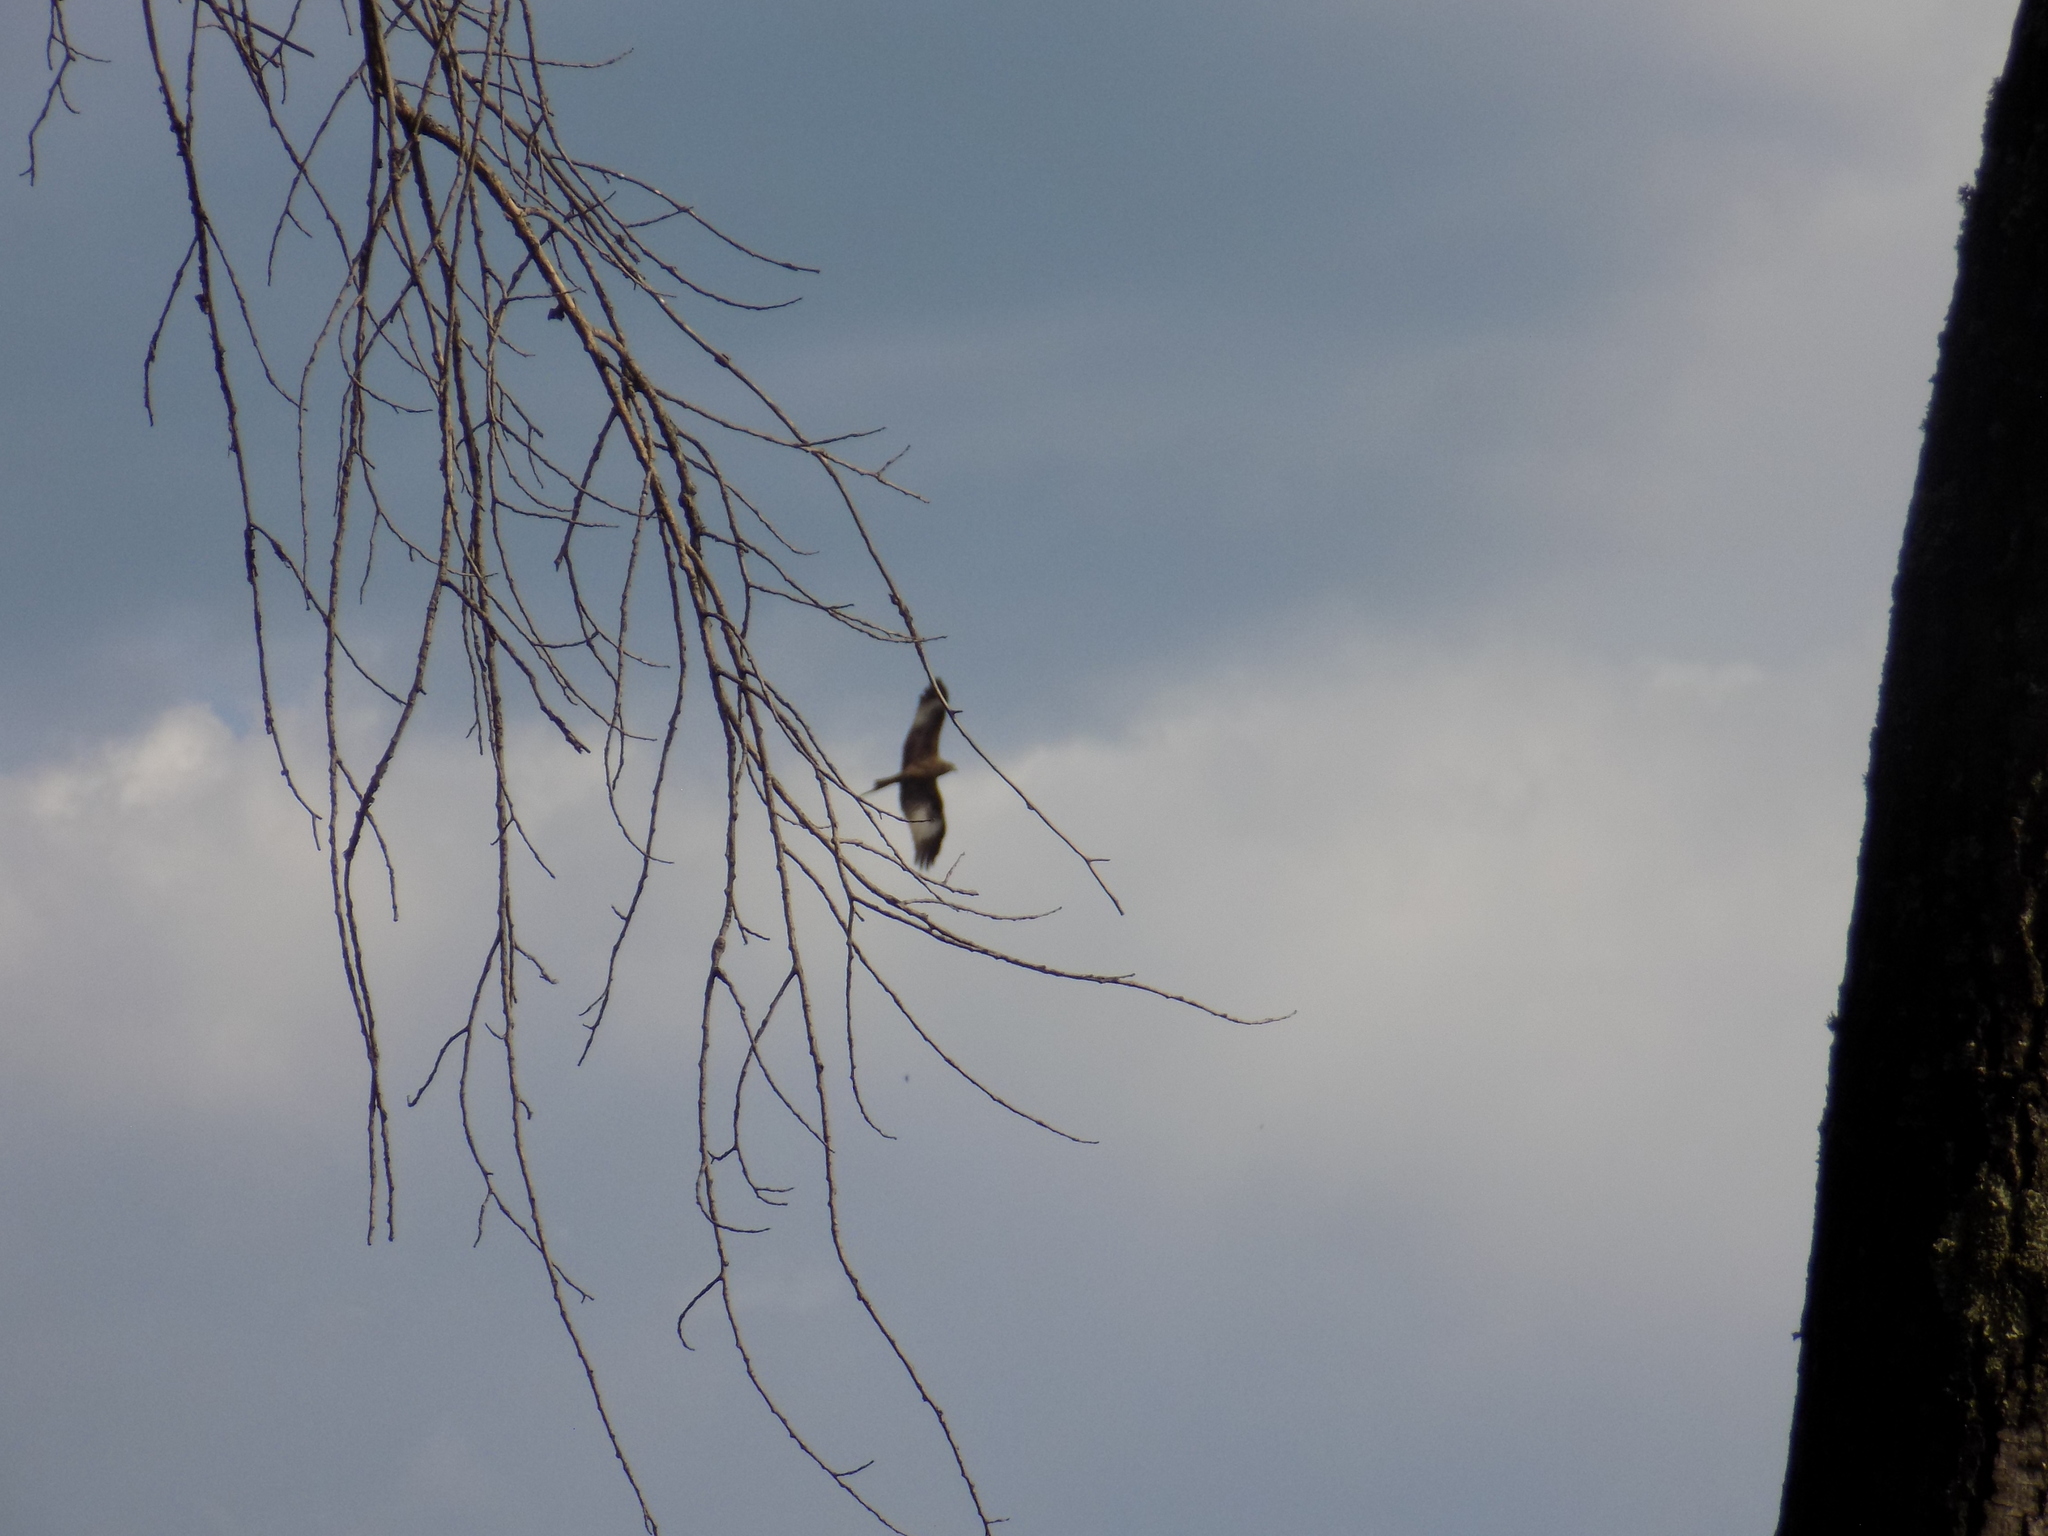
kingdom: Animalia
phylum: Chordata
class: Aves
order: Accipitriformes
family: Accipitridae
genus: Milvus
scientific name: Milvus migrans
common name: Black kite
